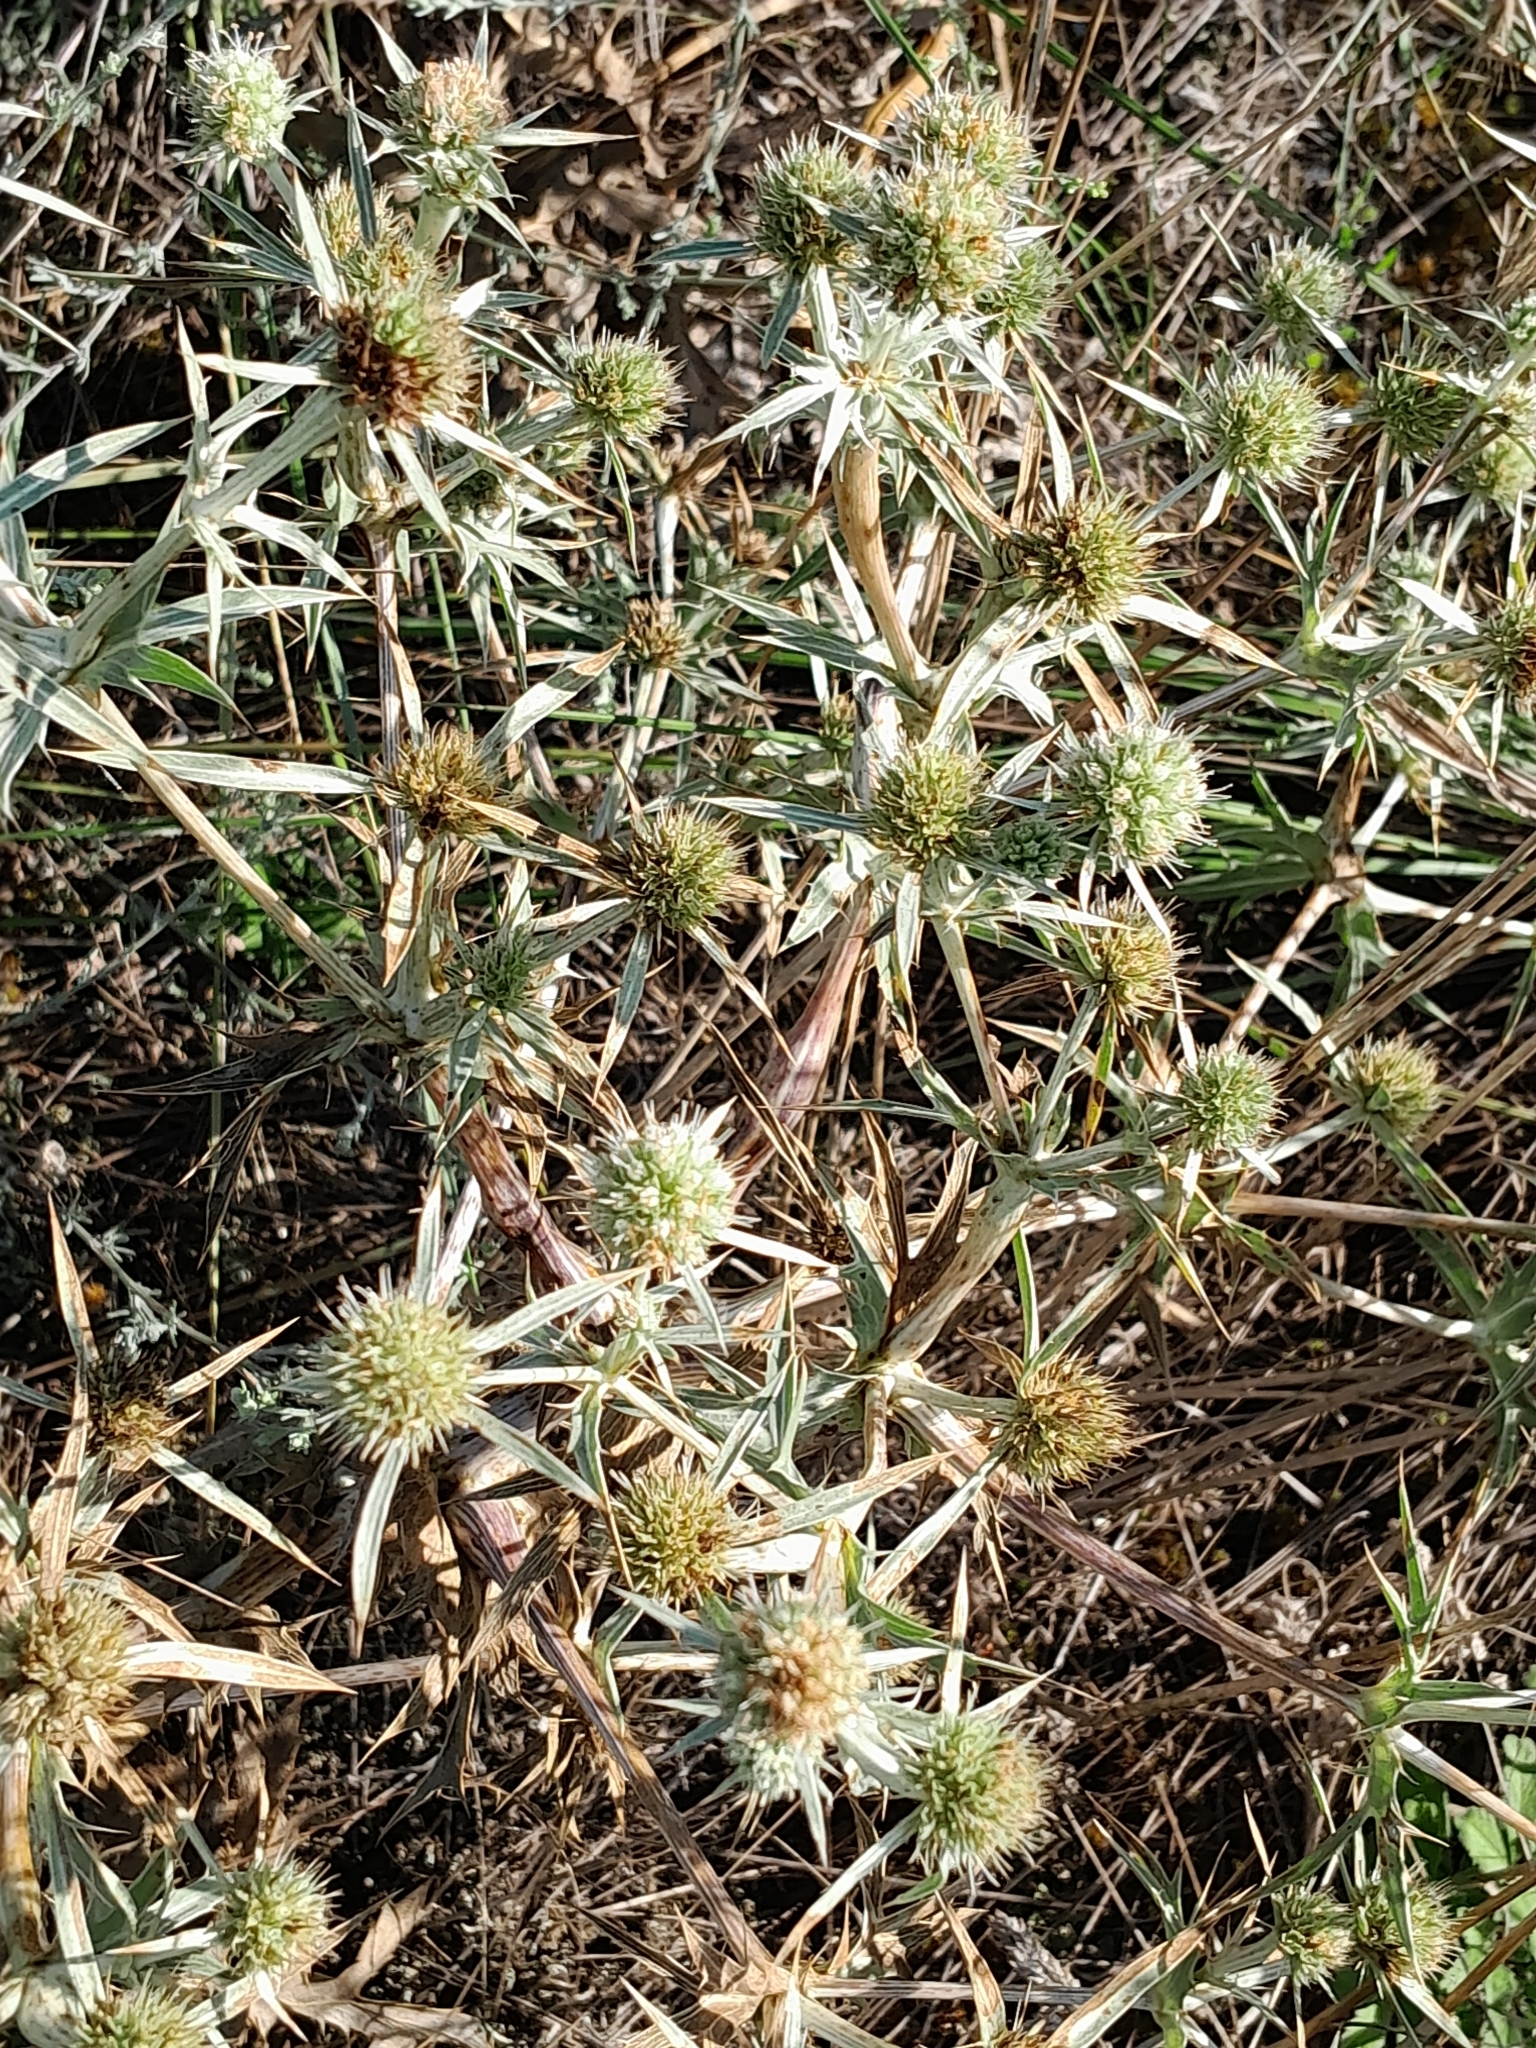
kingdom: Plantae
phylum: Tracheophyta
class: Magnoliopsida
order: Apiales
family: Apiaceae
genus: Eryngium
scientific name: Eryngium campestre
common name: Field eryngo
